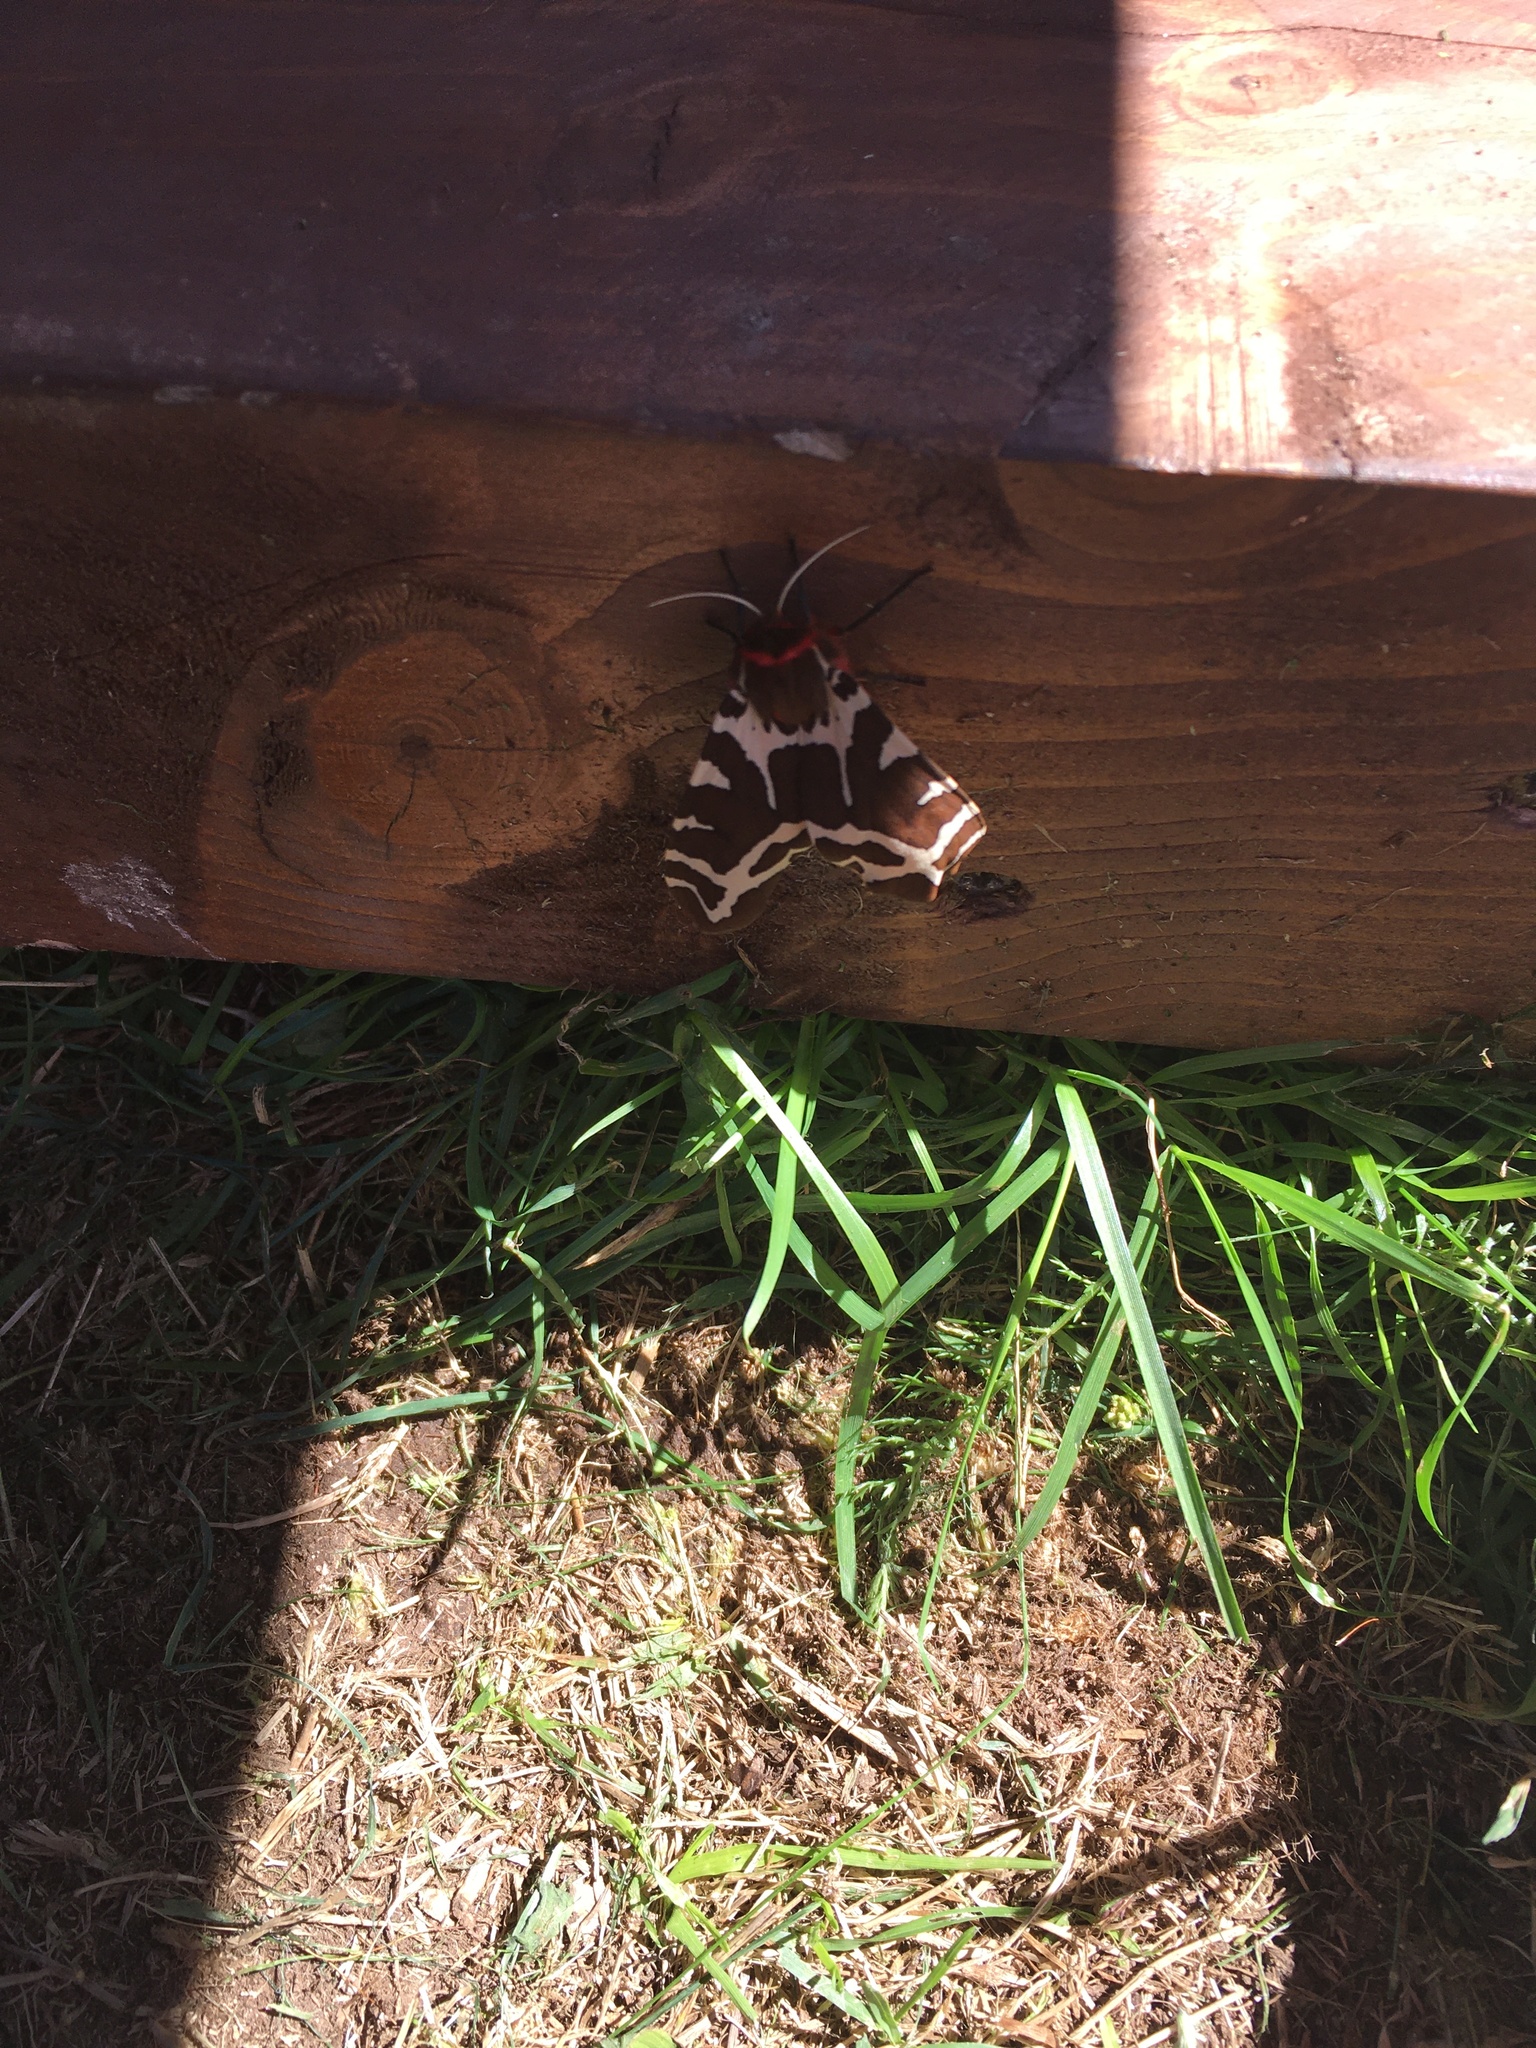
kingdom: Animalia
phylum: Arthropoda
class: Insecta
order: Lepidoptera
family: Erebidae
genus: Arctia
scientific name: Arctia caja
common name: Garden tiger
